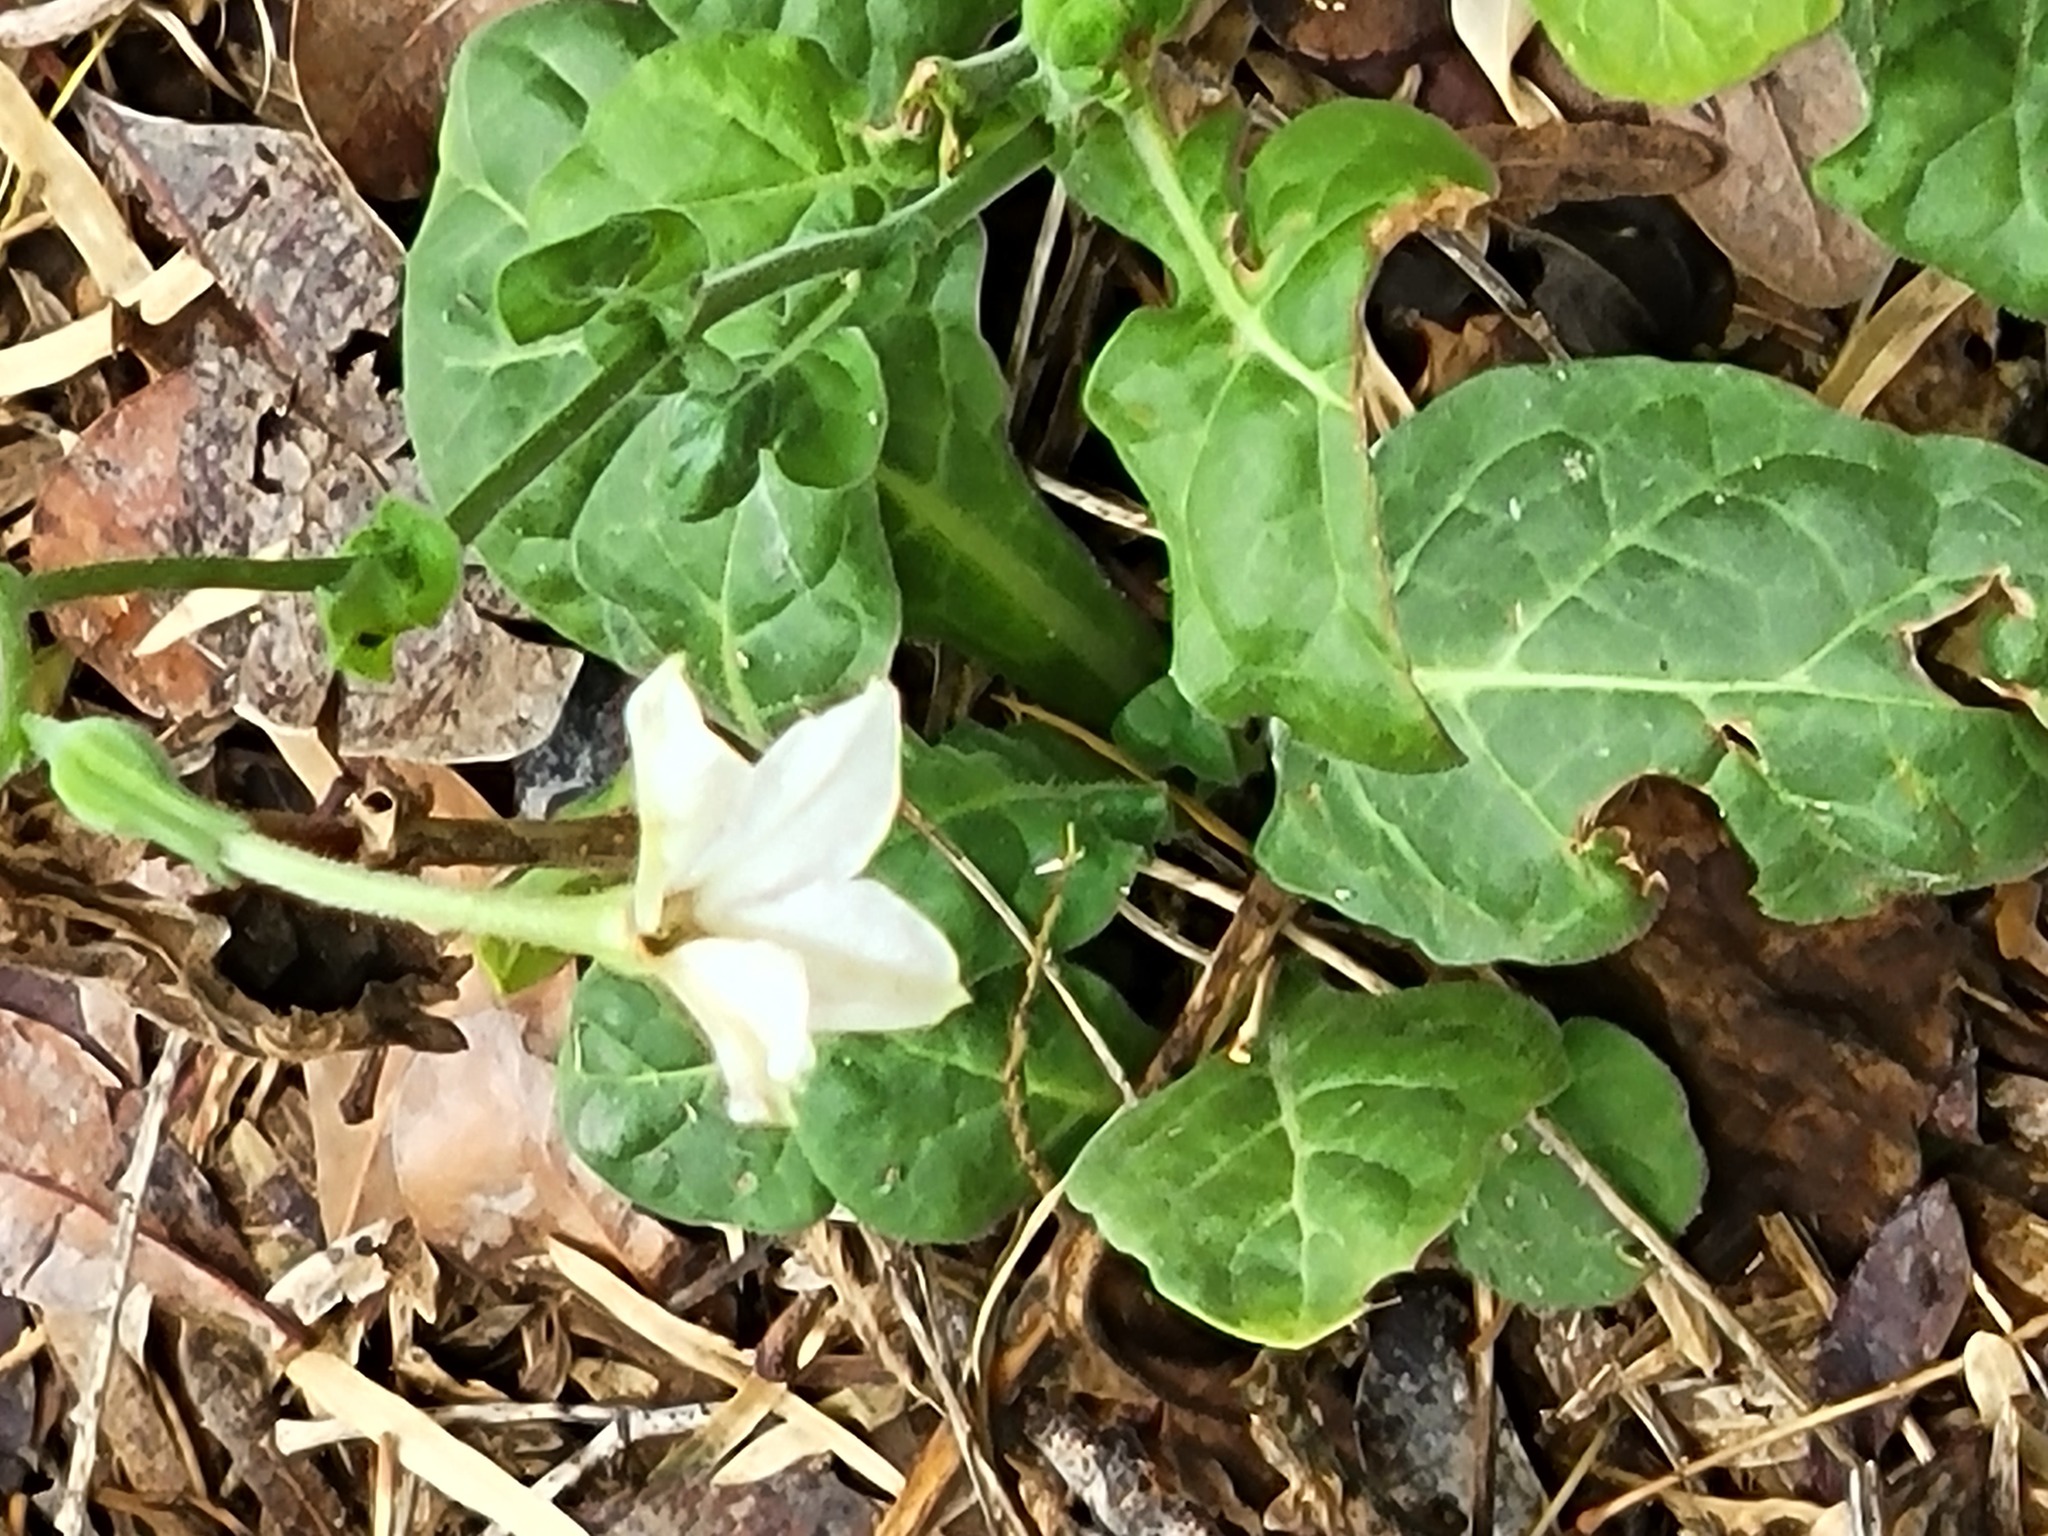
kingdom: Plantae
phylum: Tracheophyta
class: Magnoliopsida
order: Solanales
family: Solanaceae
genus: Nicotiana
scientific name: Nicotiana repanda
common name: Fiddle-leaf tobacco
